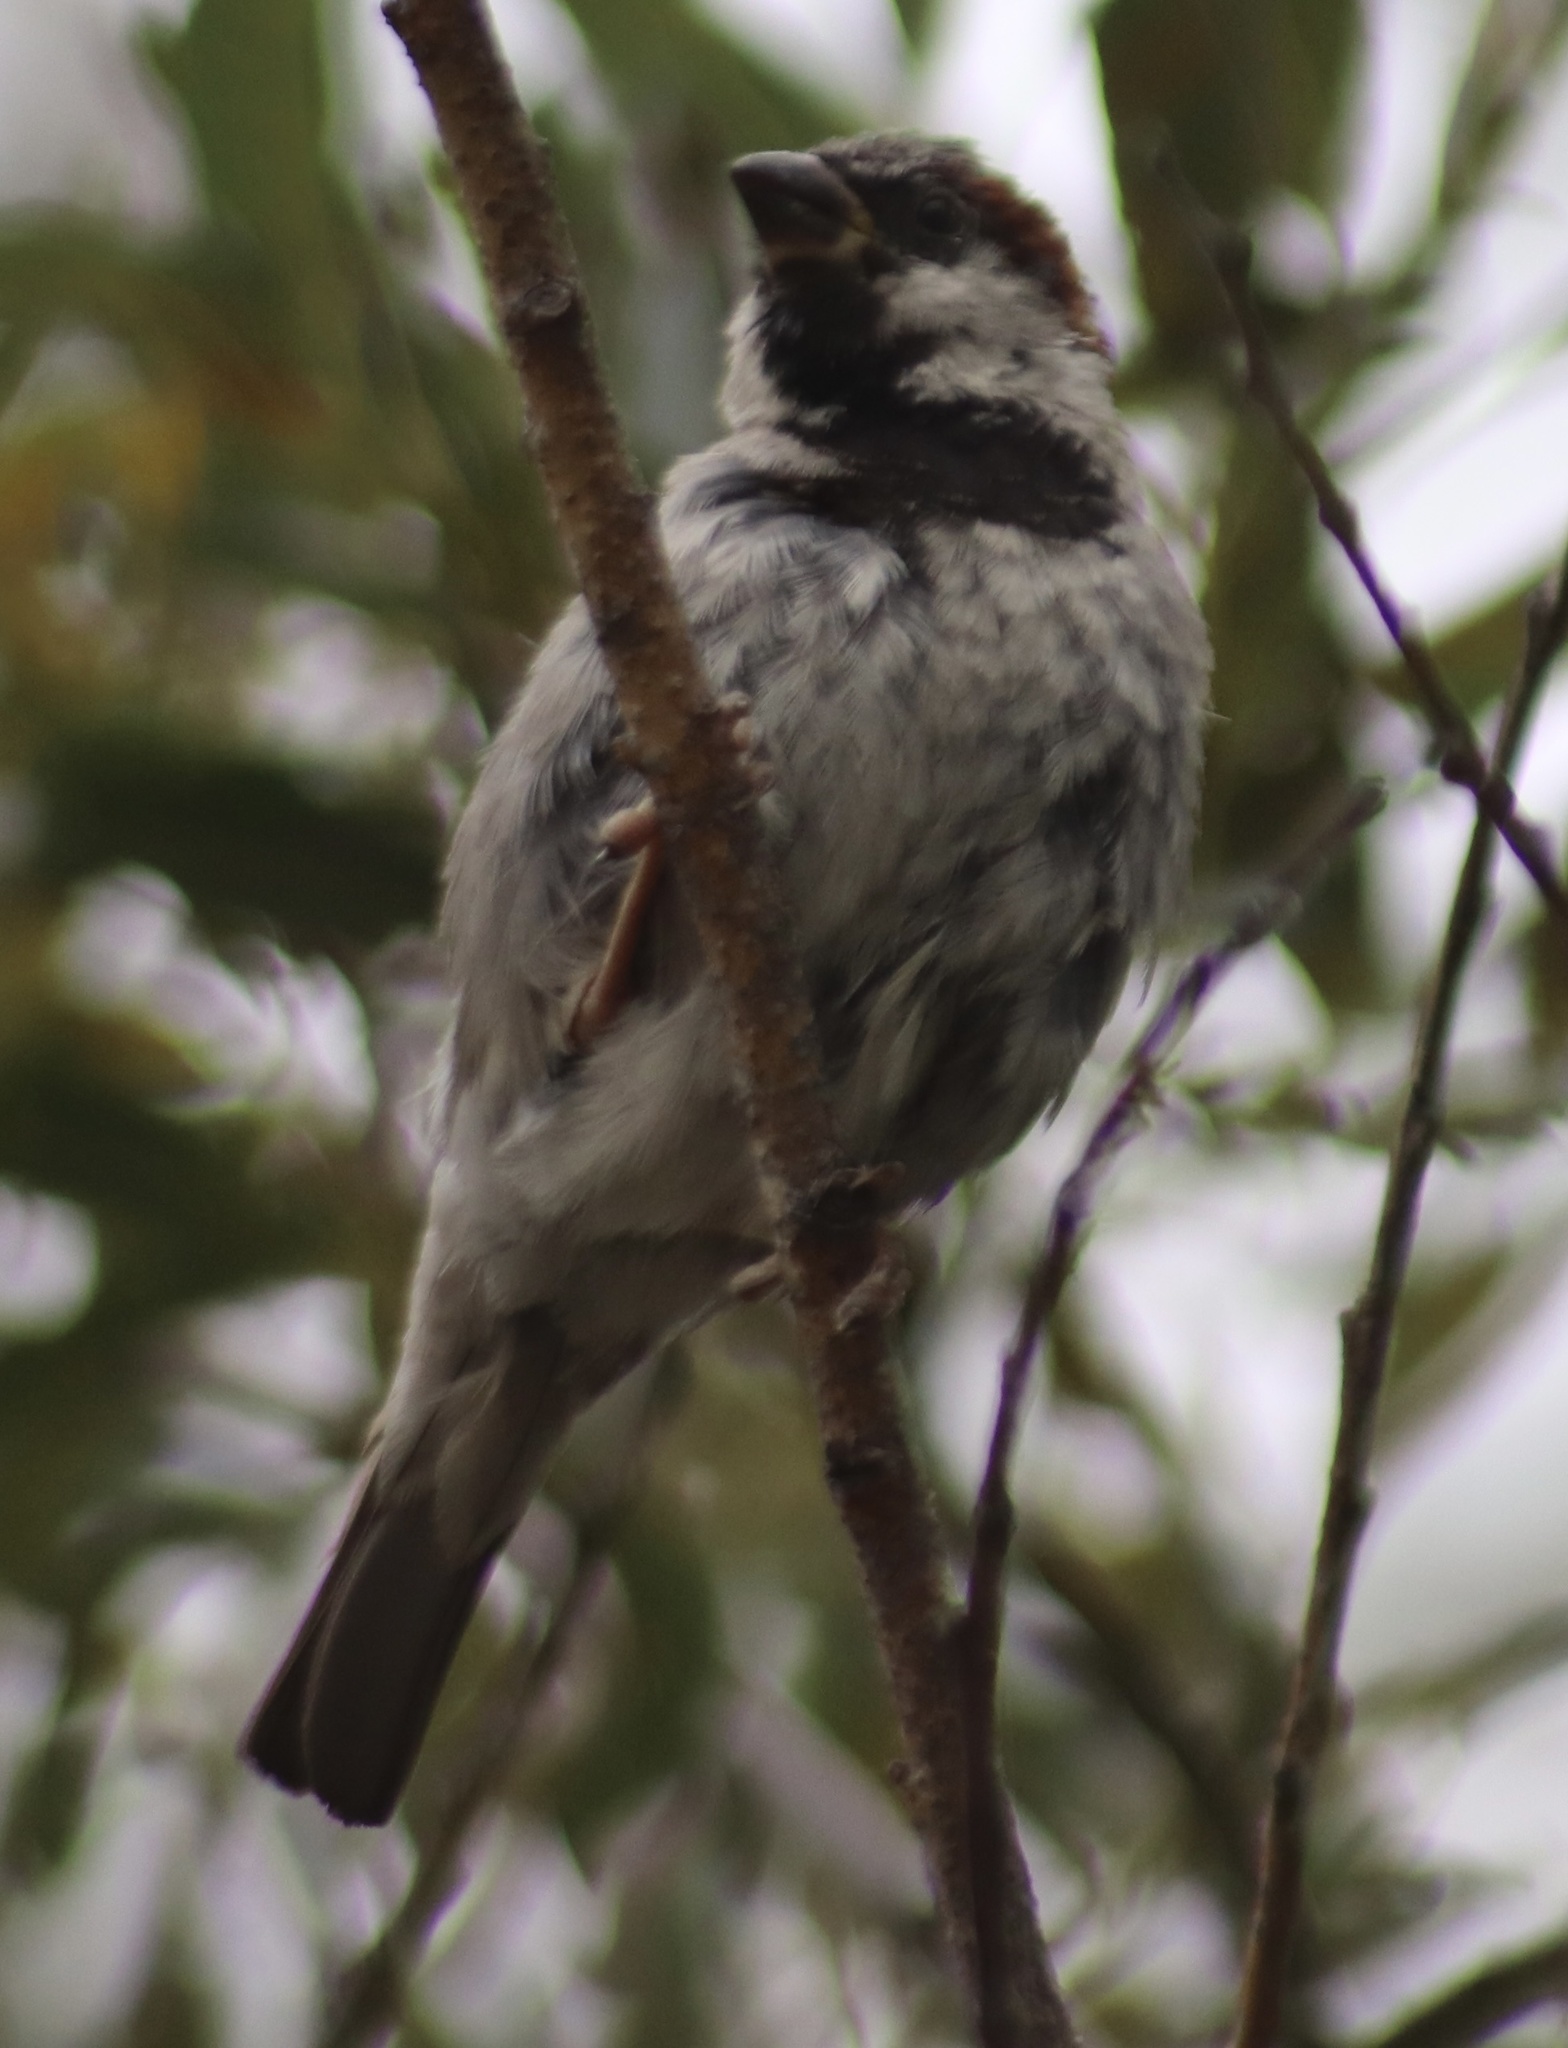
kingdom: Animalia
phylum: Chordata
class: Aves
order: Passeriformes
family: Passeridae
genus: Passer
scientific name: Passer domesticus
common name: House sparrow
